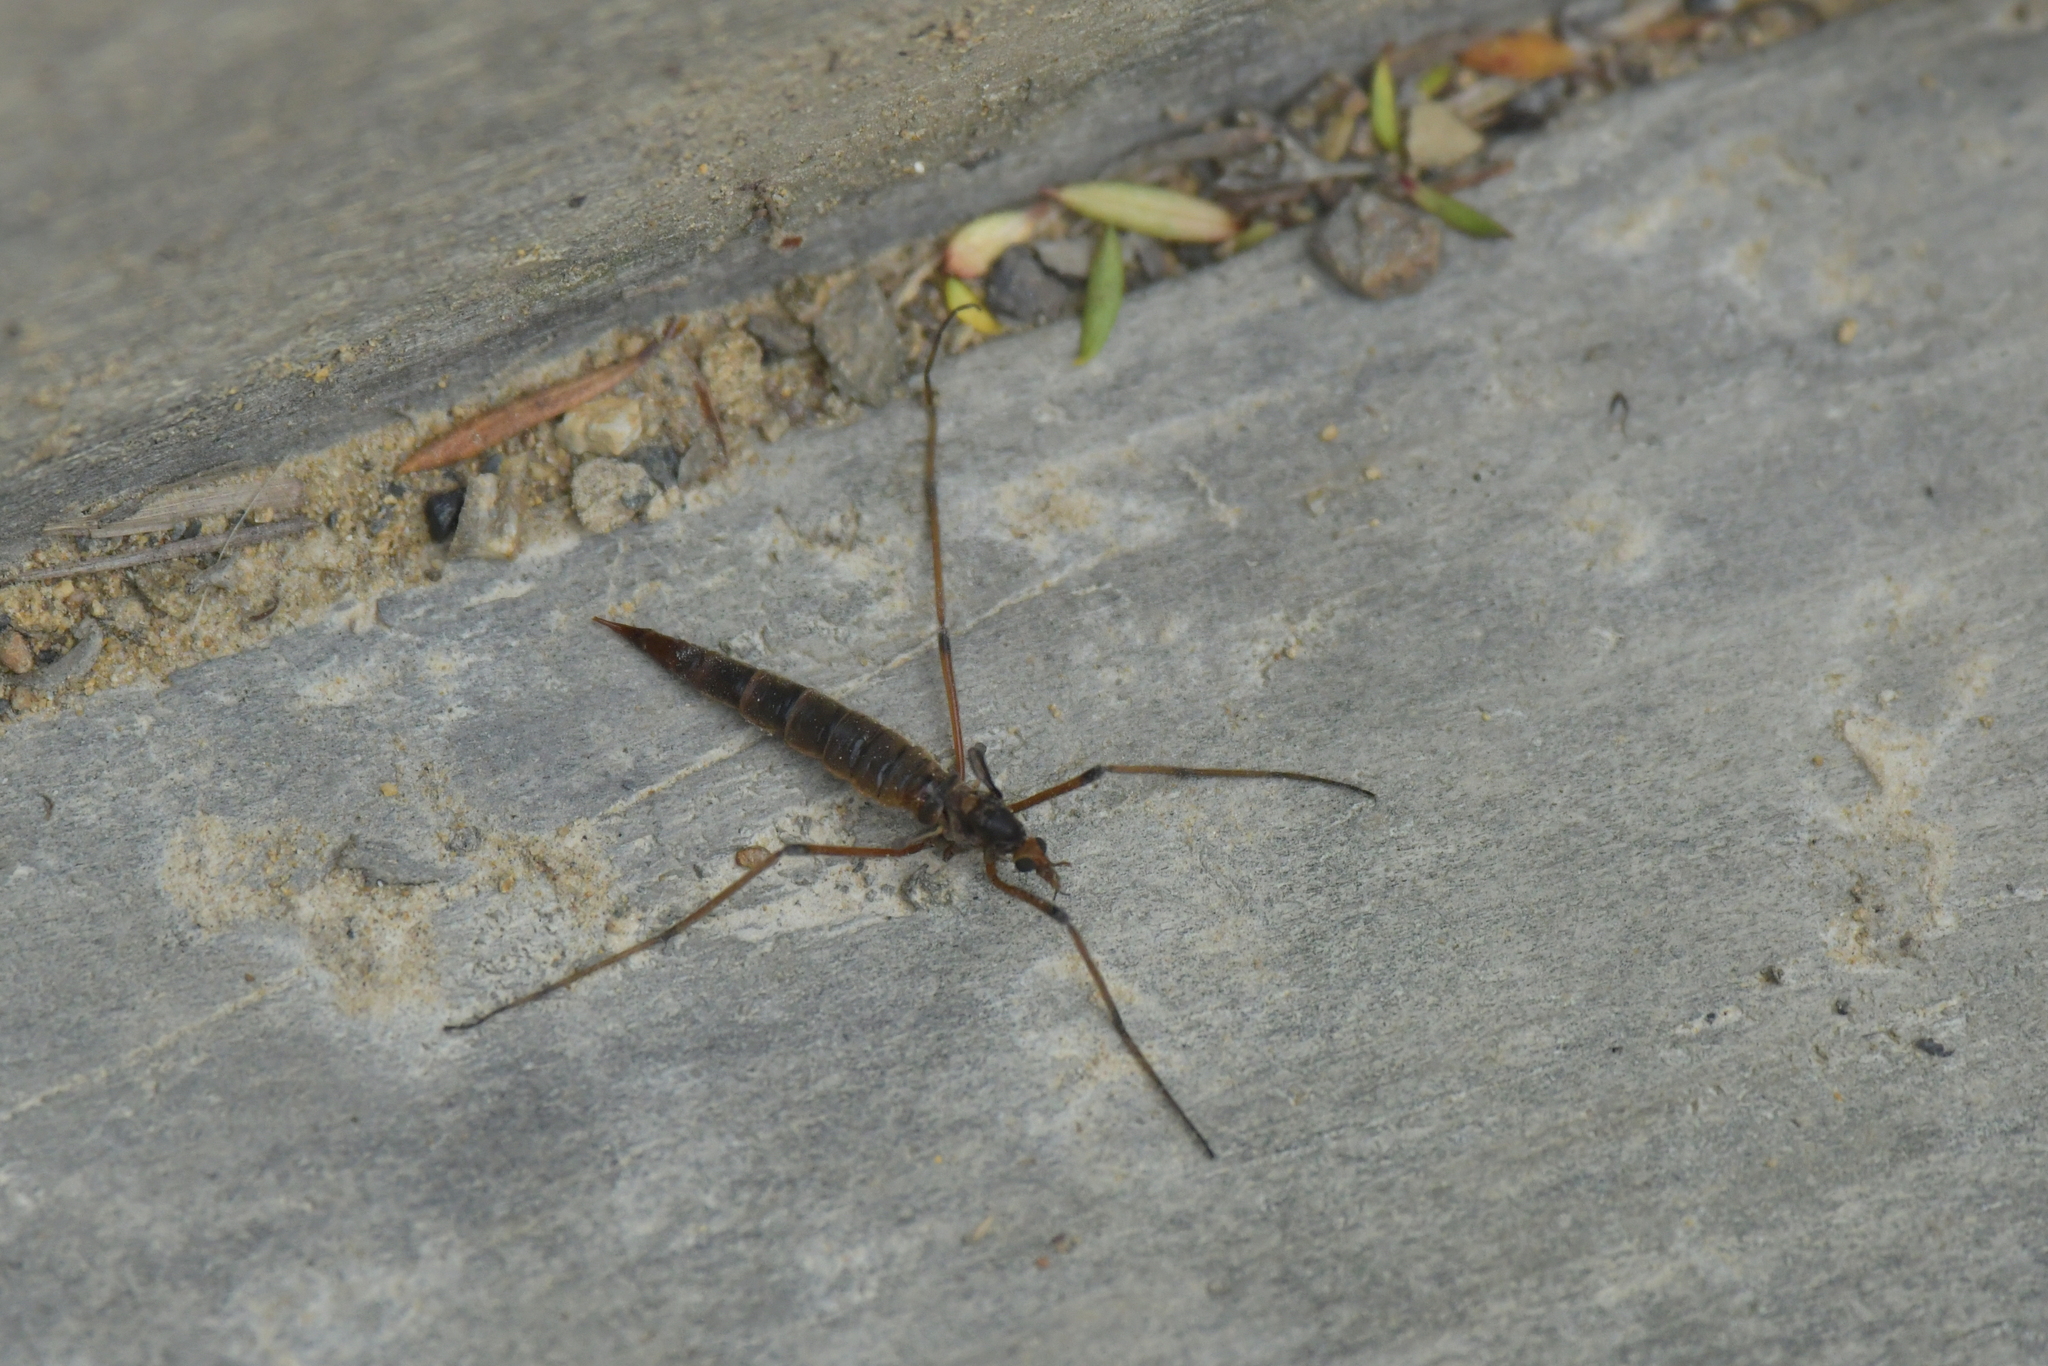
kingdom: Animalia
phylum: Arthropoda
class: Insecta
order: Diptera
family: Tipulidae
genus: Leptotarsus
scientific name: Leptotarsus heterogamus
